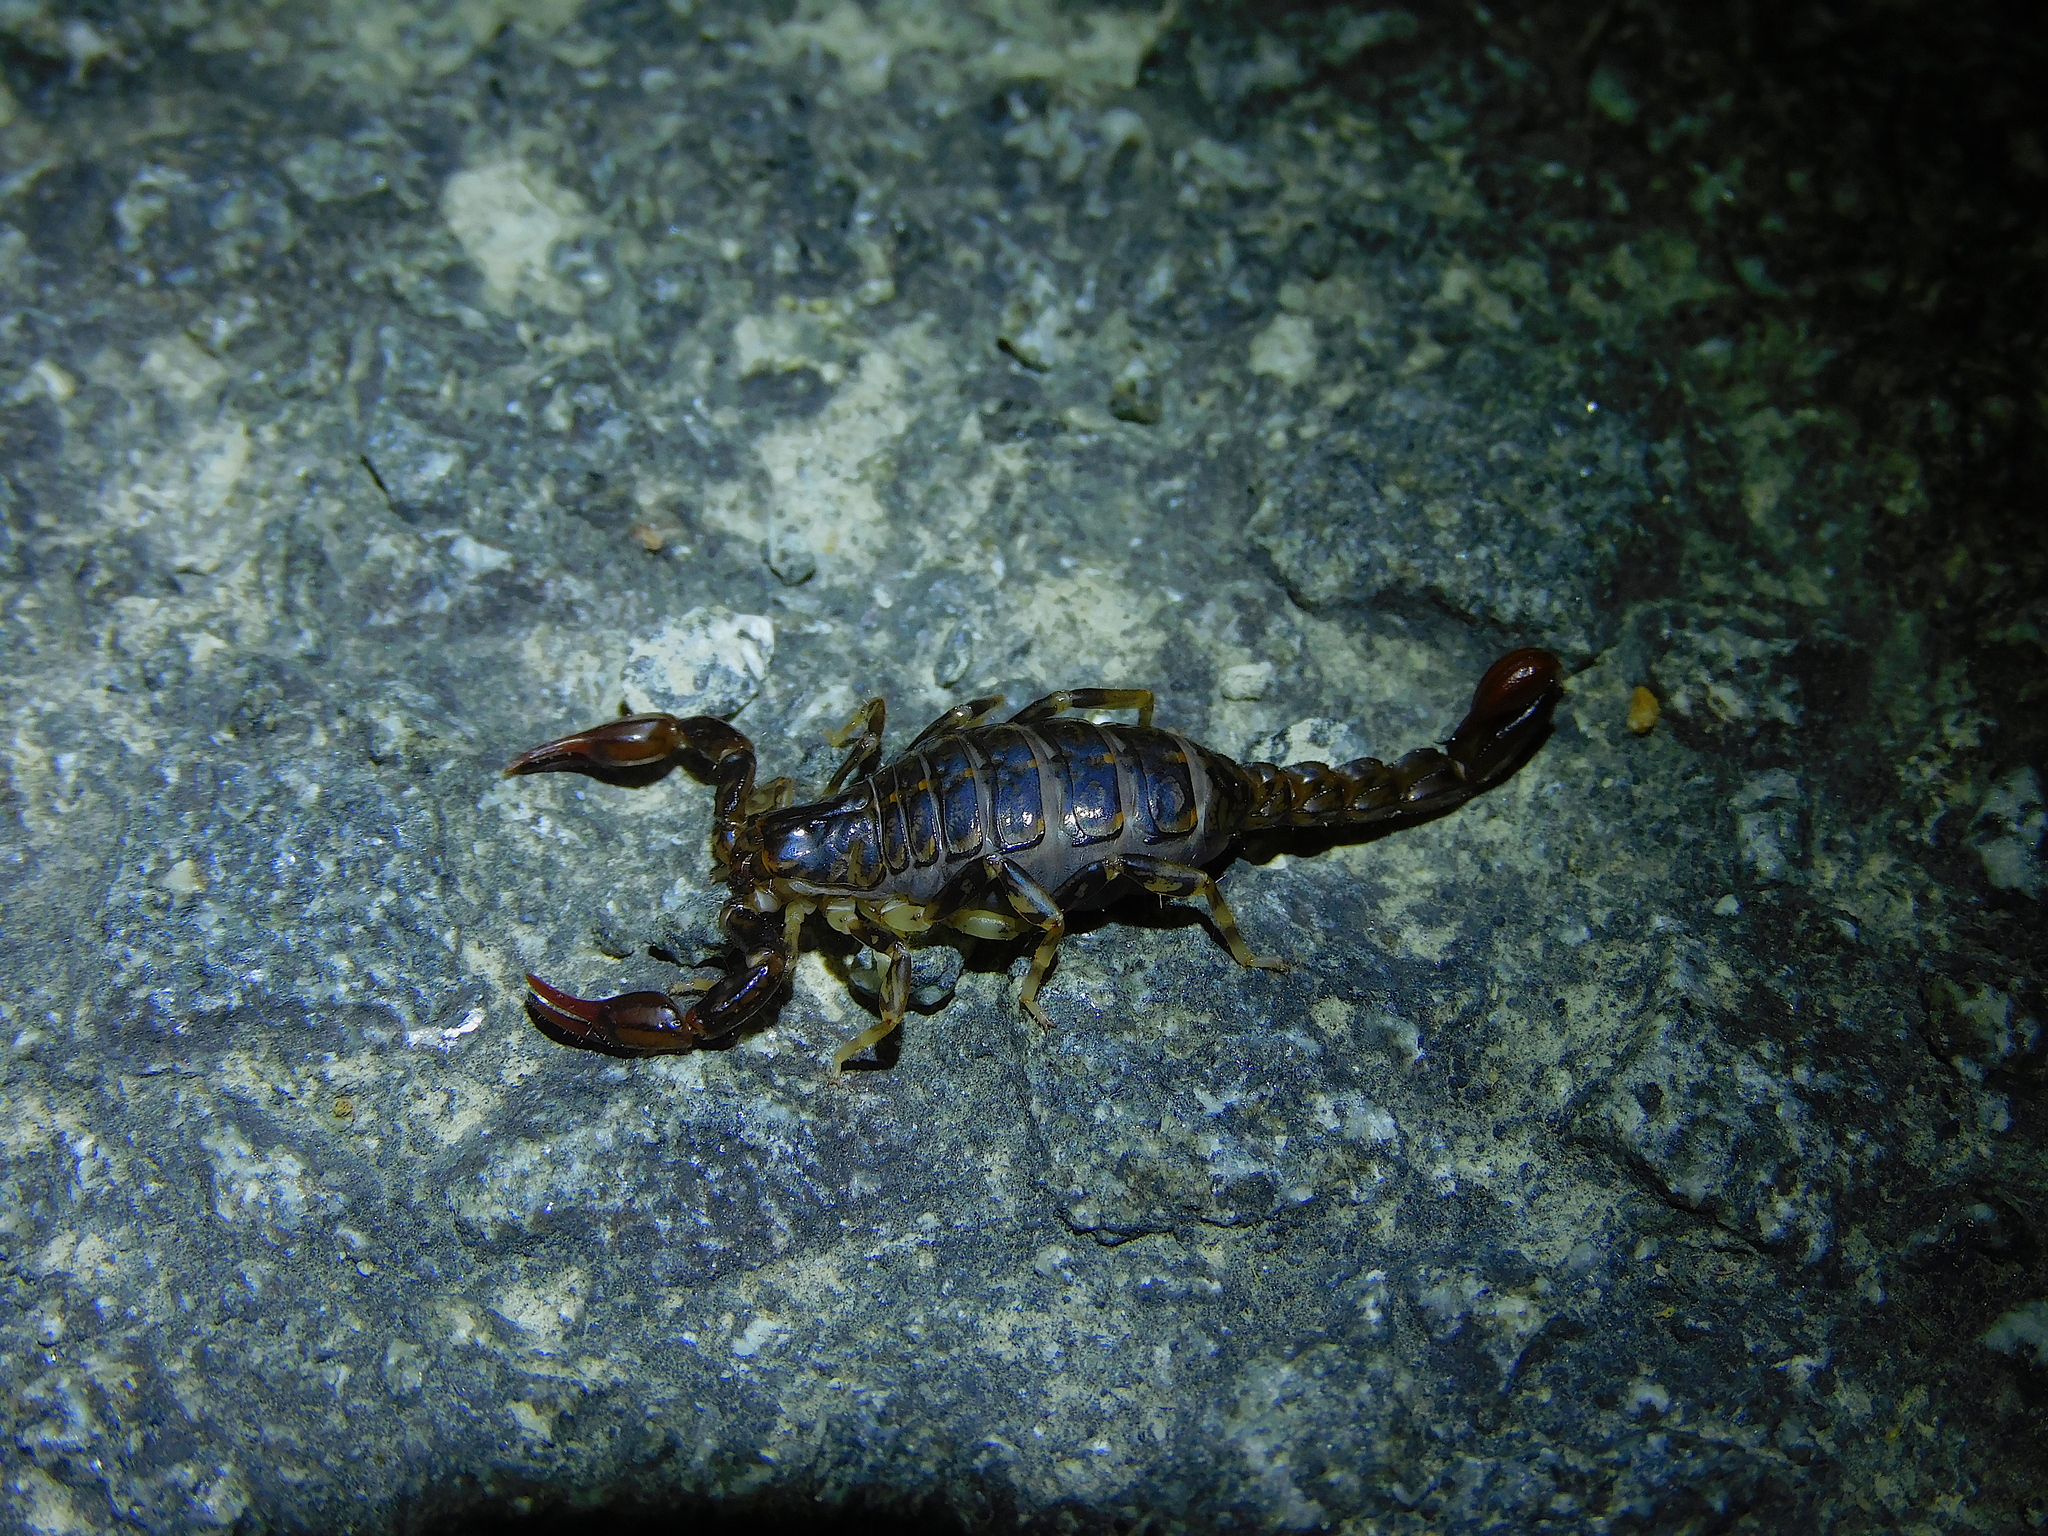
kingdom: Animalia
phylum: Arthropoda
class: Arachnida
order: Scorpiones
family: Bothriuridae
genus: Cercophonius
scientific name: Cercophonius squama
